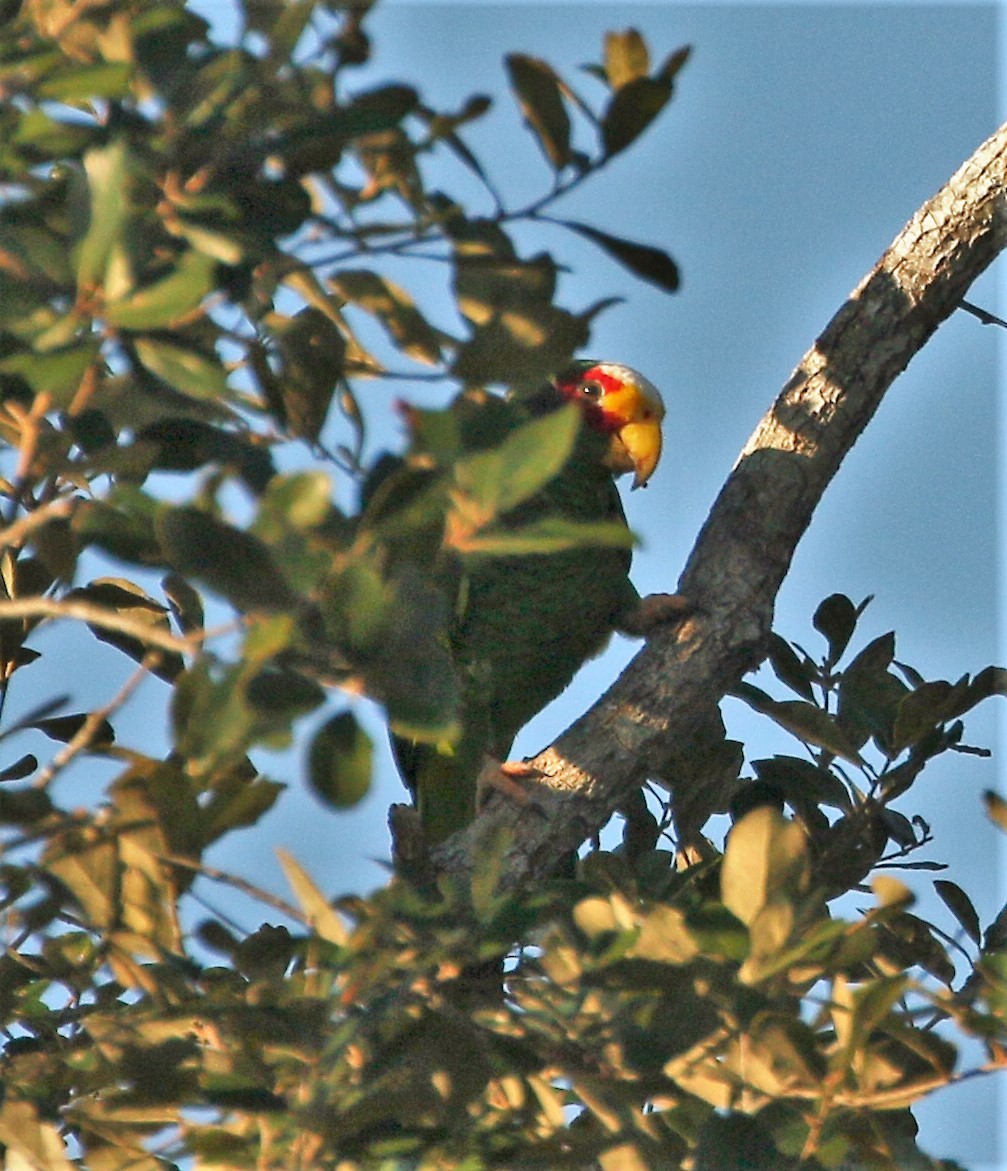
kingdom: Animalia
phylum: Chordata
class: Aves
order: Psittaciformes
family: Psittacidae
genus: Amazona
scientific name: Amazona xantholora
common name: Yucatan amazon
